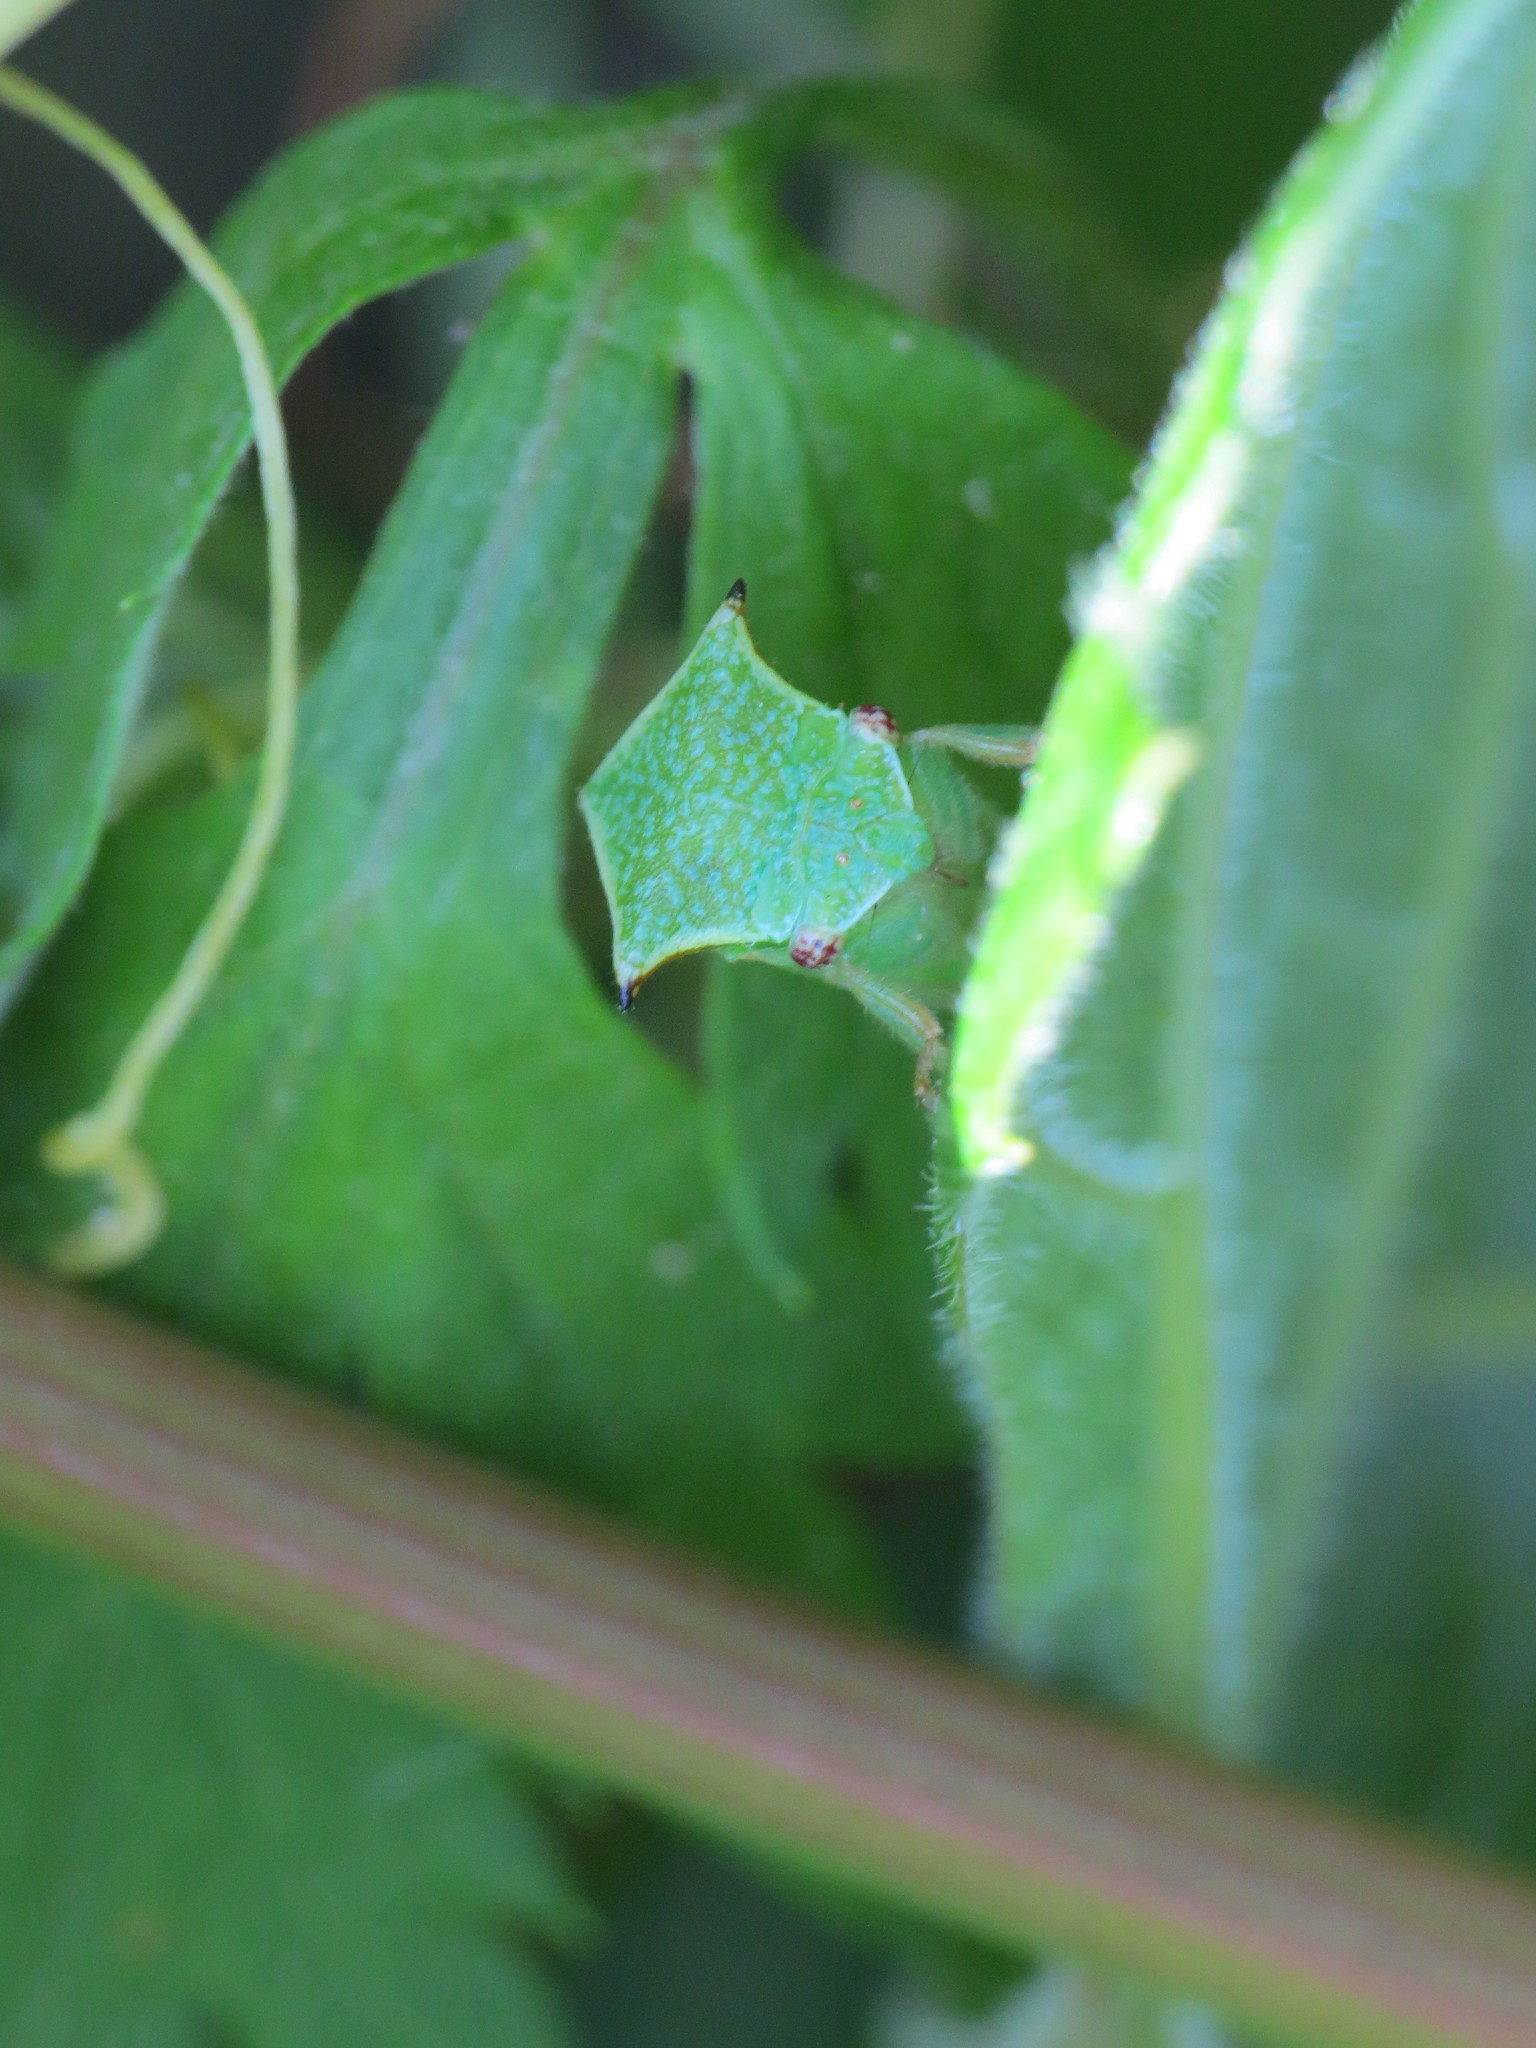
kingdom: Animalia
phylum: Arthropoda
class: Insecta
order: Hemiptera
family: Membracidae
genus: Stictocephala
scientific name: Stictocephala bisonia
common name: American buffalo treehopper
